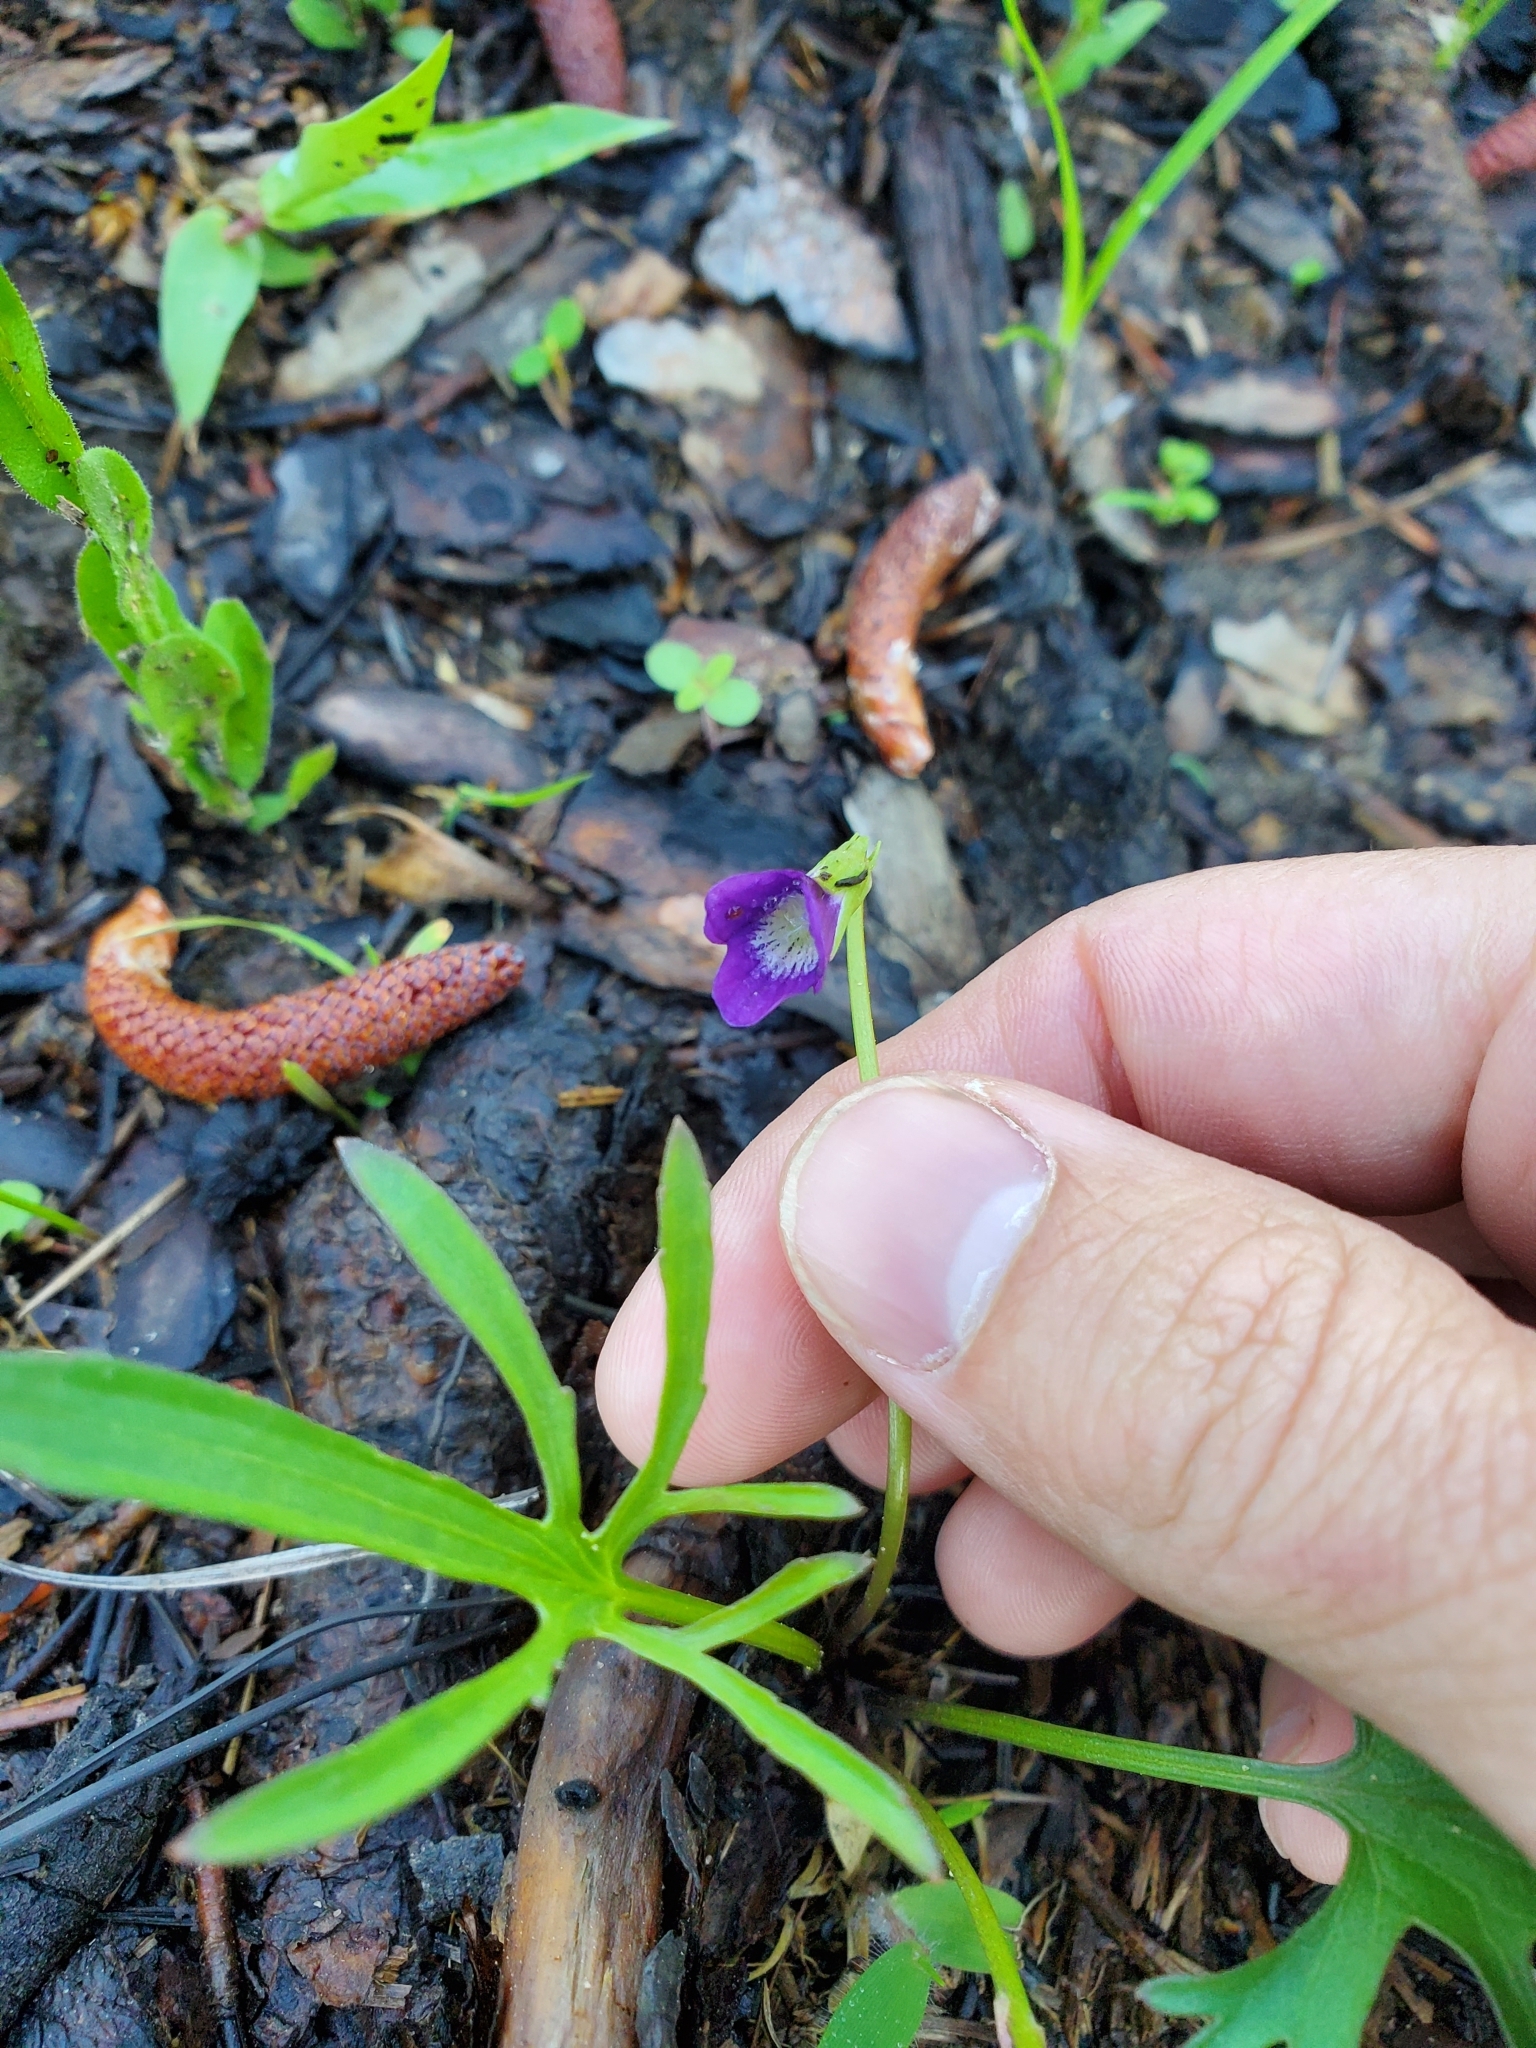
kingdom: Plantae
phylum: Tracheophyta
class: Magnoliopsida
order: Malpighiales
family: Violaceae
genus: Viola
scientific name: Viola septemloba
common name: Southern coast violet
